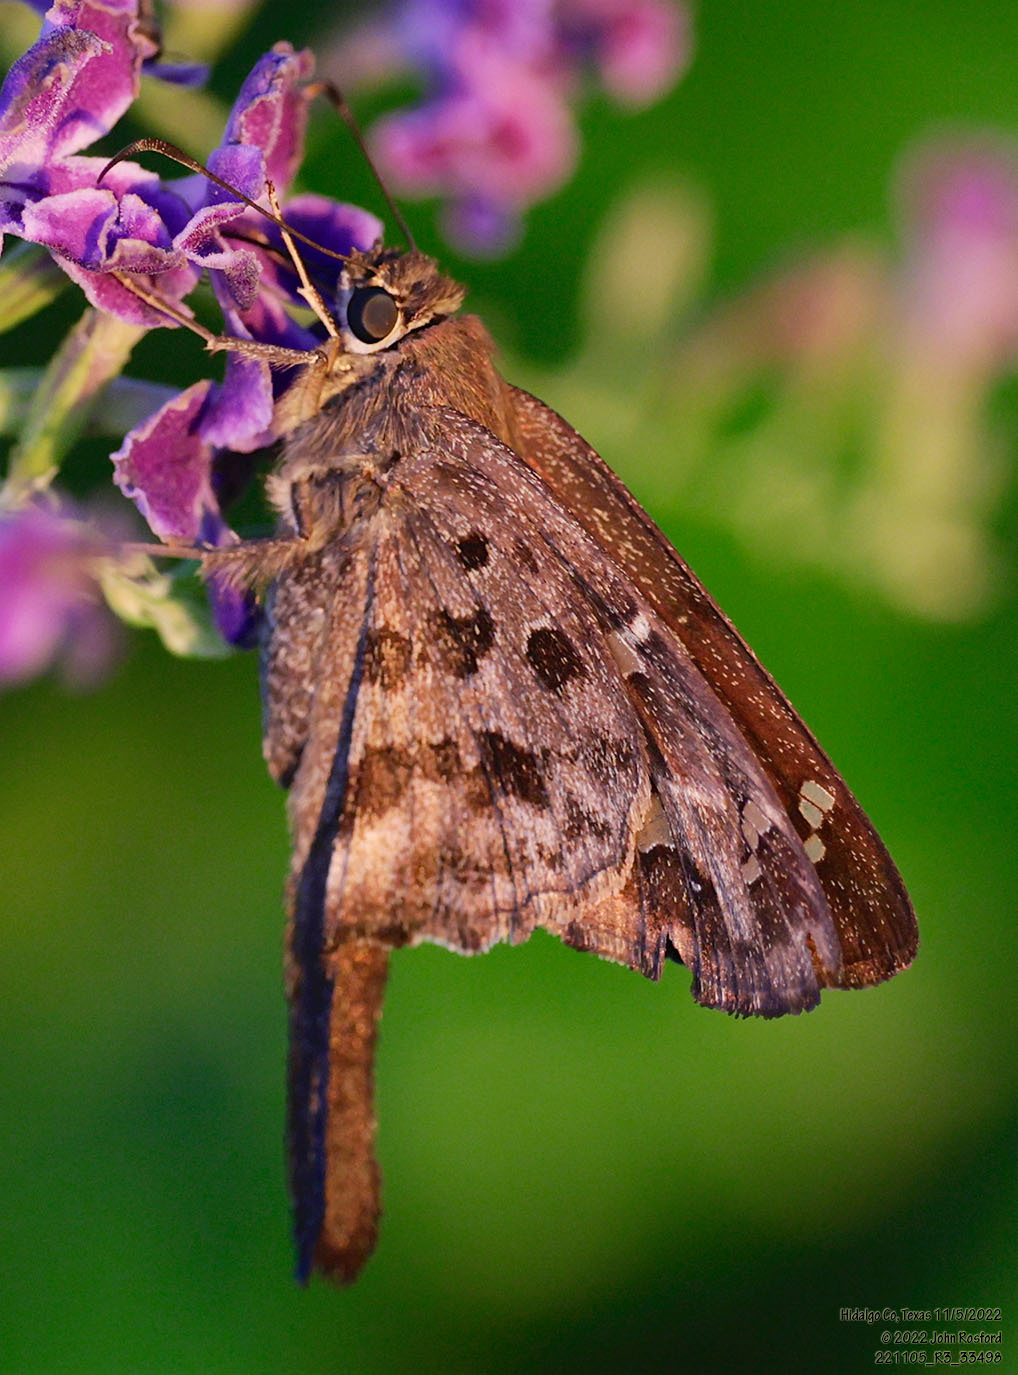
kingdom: Animalia
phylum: Arthropoda
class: Insecta
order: Lepidoptera
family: Hesperiidae
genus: Thorybes
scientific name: Thorybes
